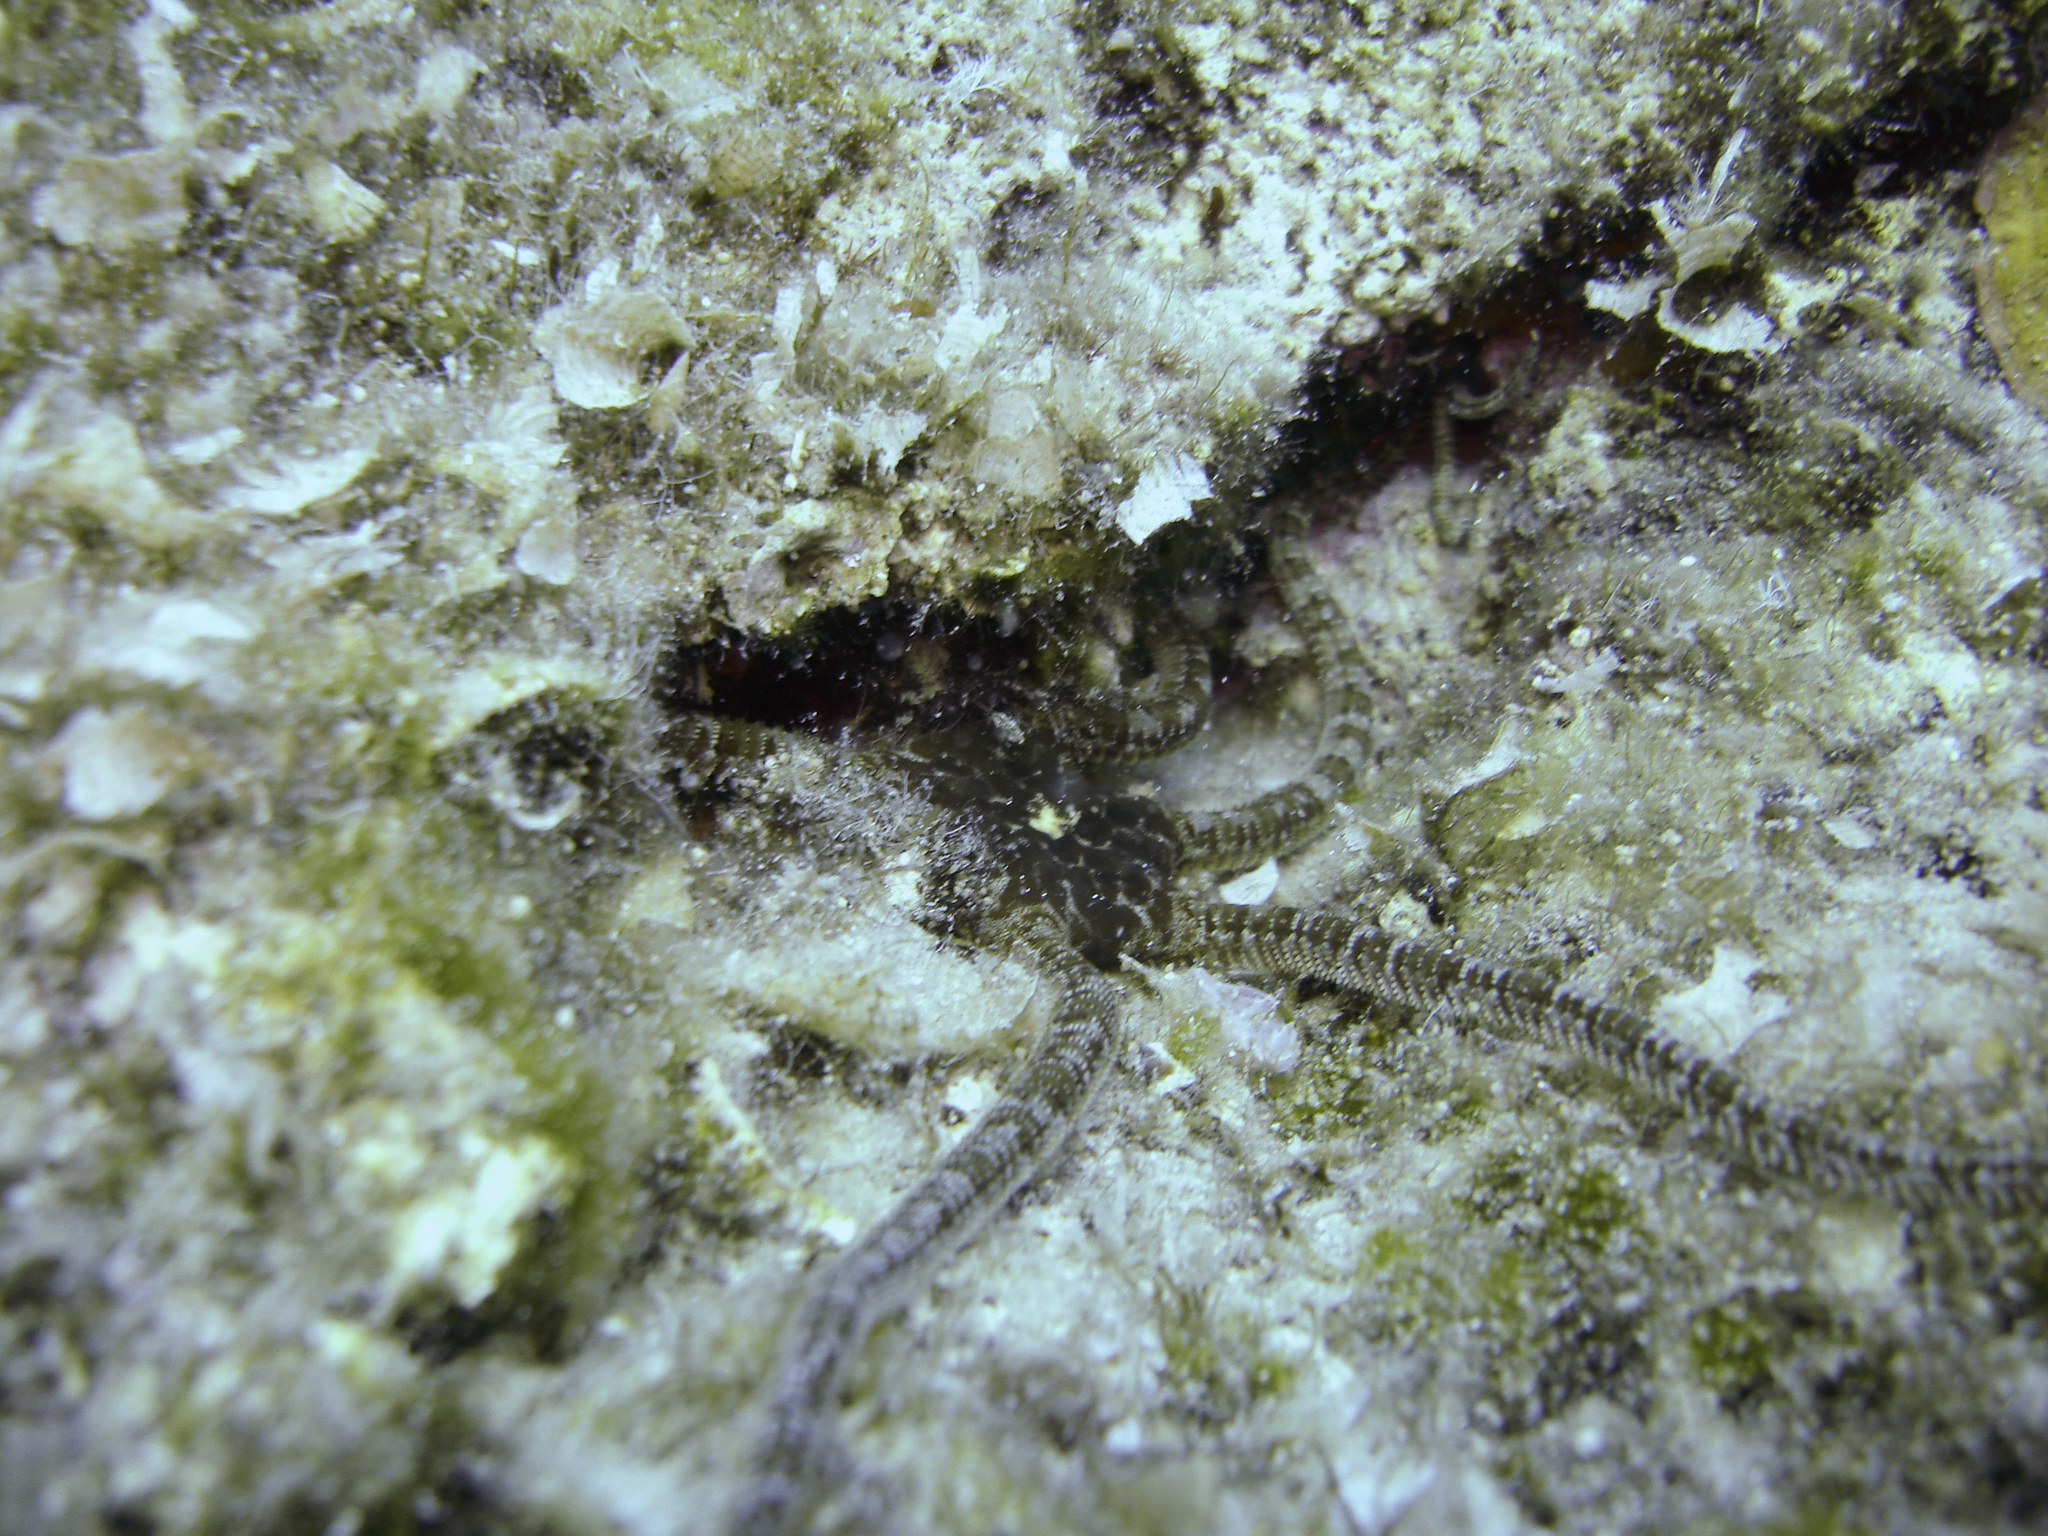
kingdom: Animalia
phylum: Echinodermata
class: Ophiuroidea
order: Ophiacanthida
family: Ophiodermatidae
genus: Ophioderma
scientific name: Ophioderma longicaudum
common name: Smooth brittle-star
